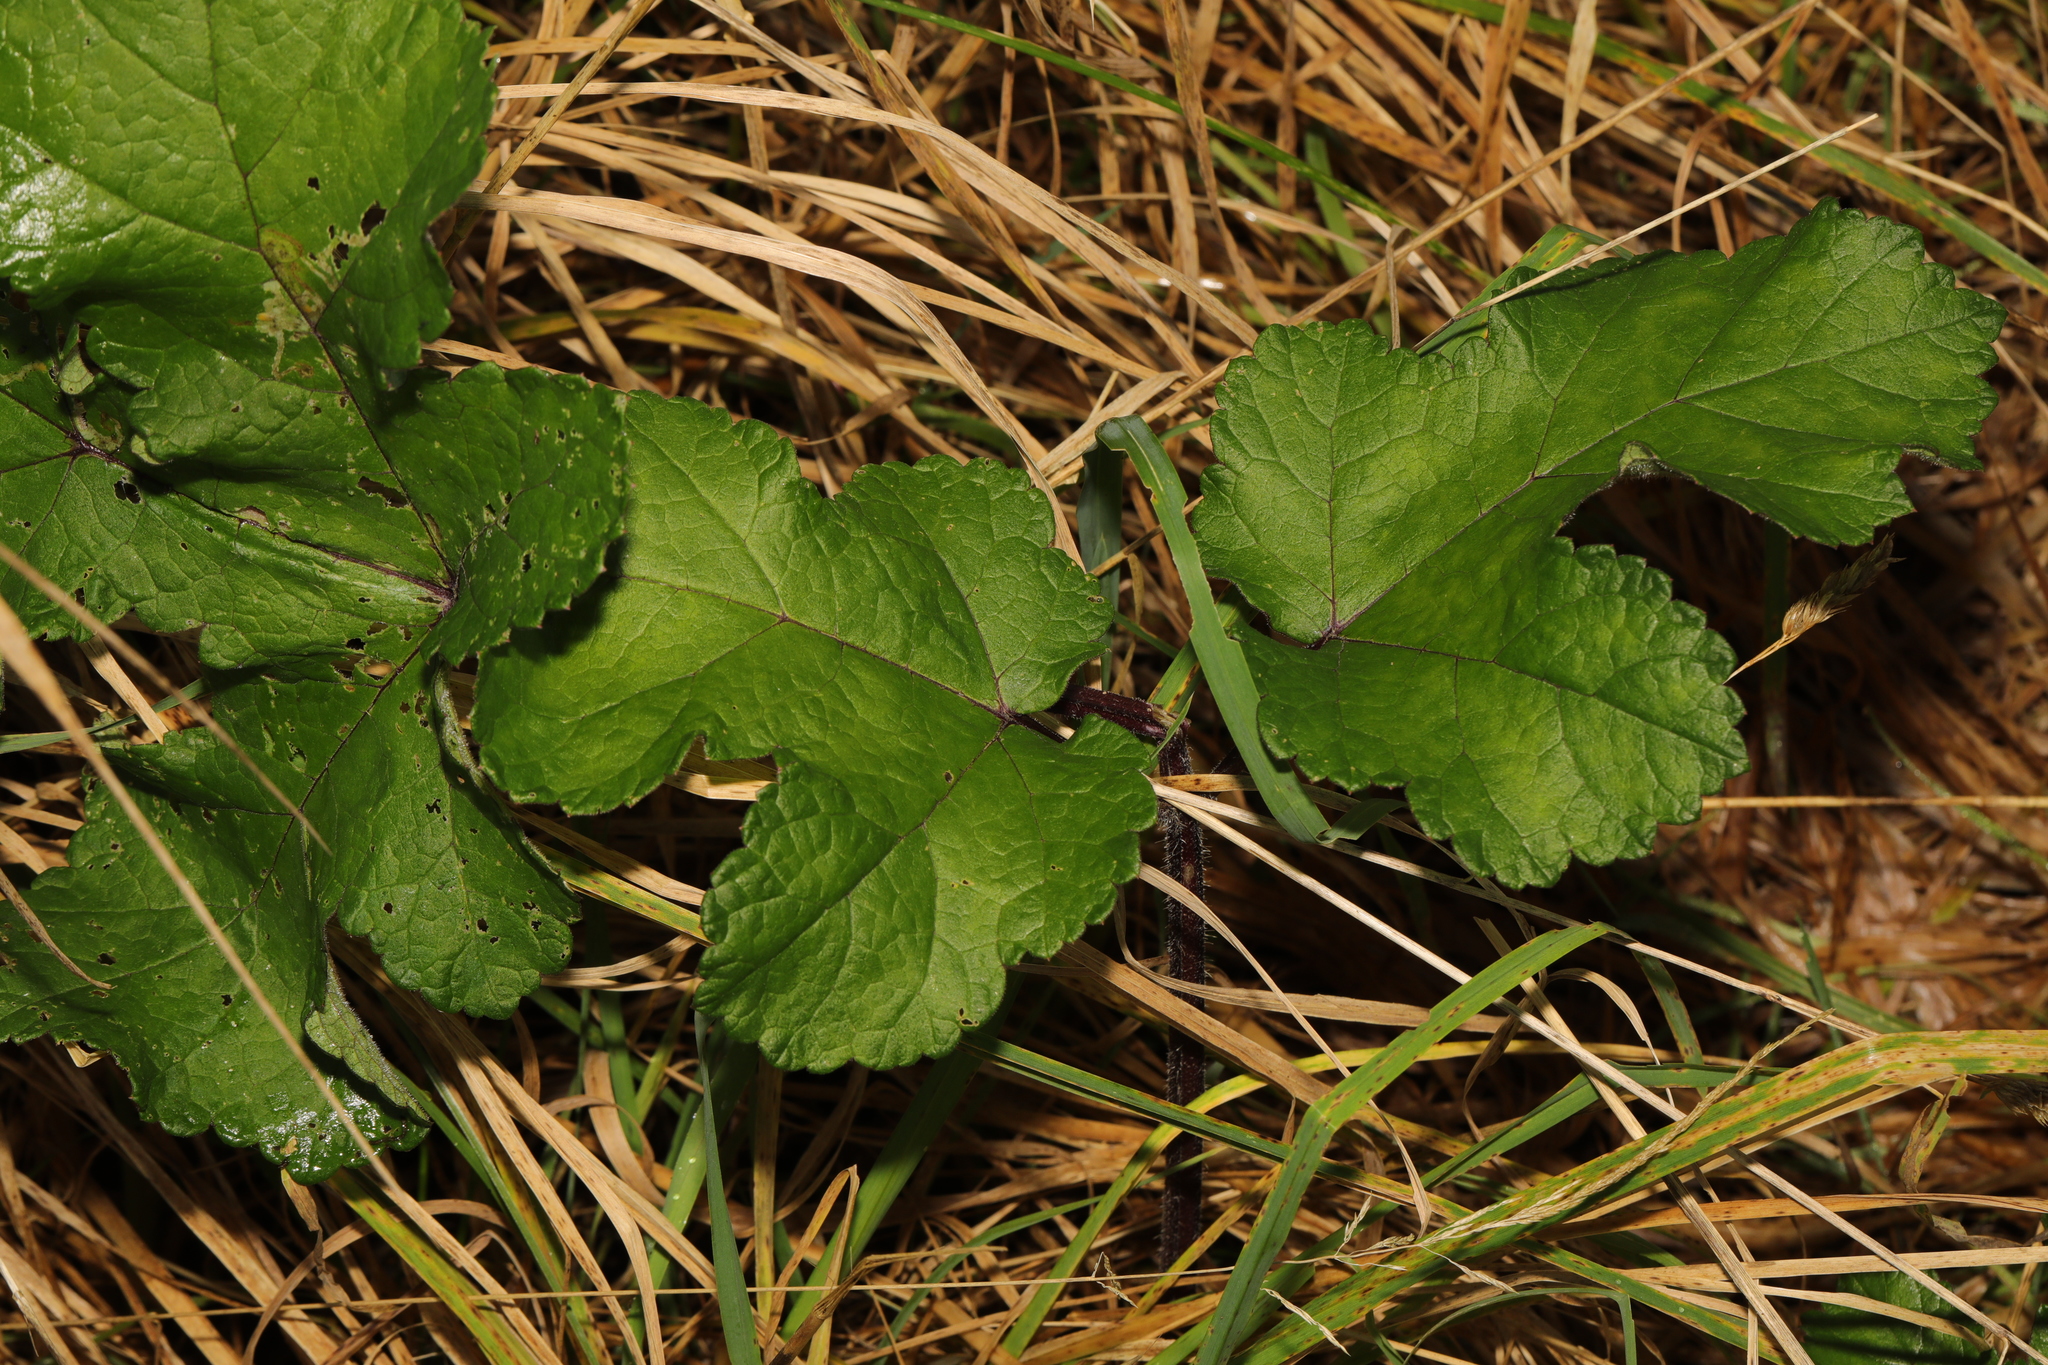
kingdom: Plantae
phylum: Tracheophyta
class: Magnoliopsida
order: Apiales
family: Apiaceae
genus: Heracleum
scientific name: Heracleum sphondylium
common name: Hogweed
